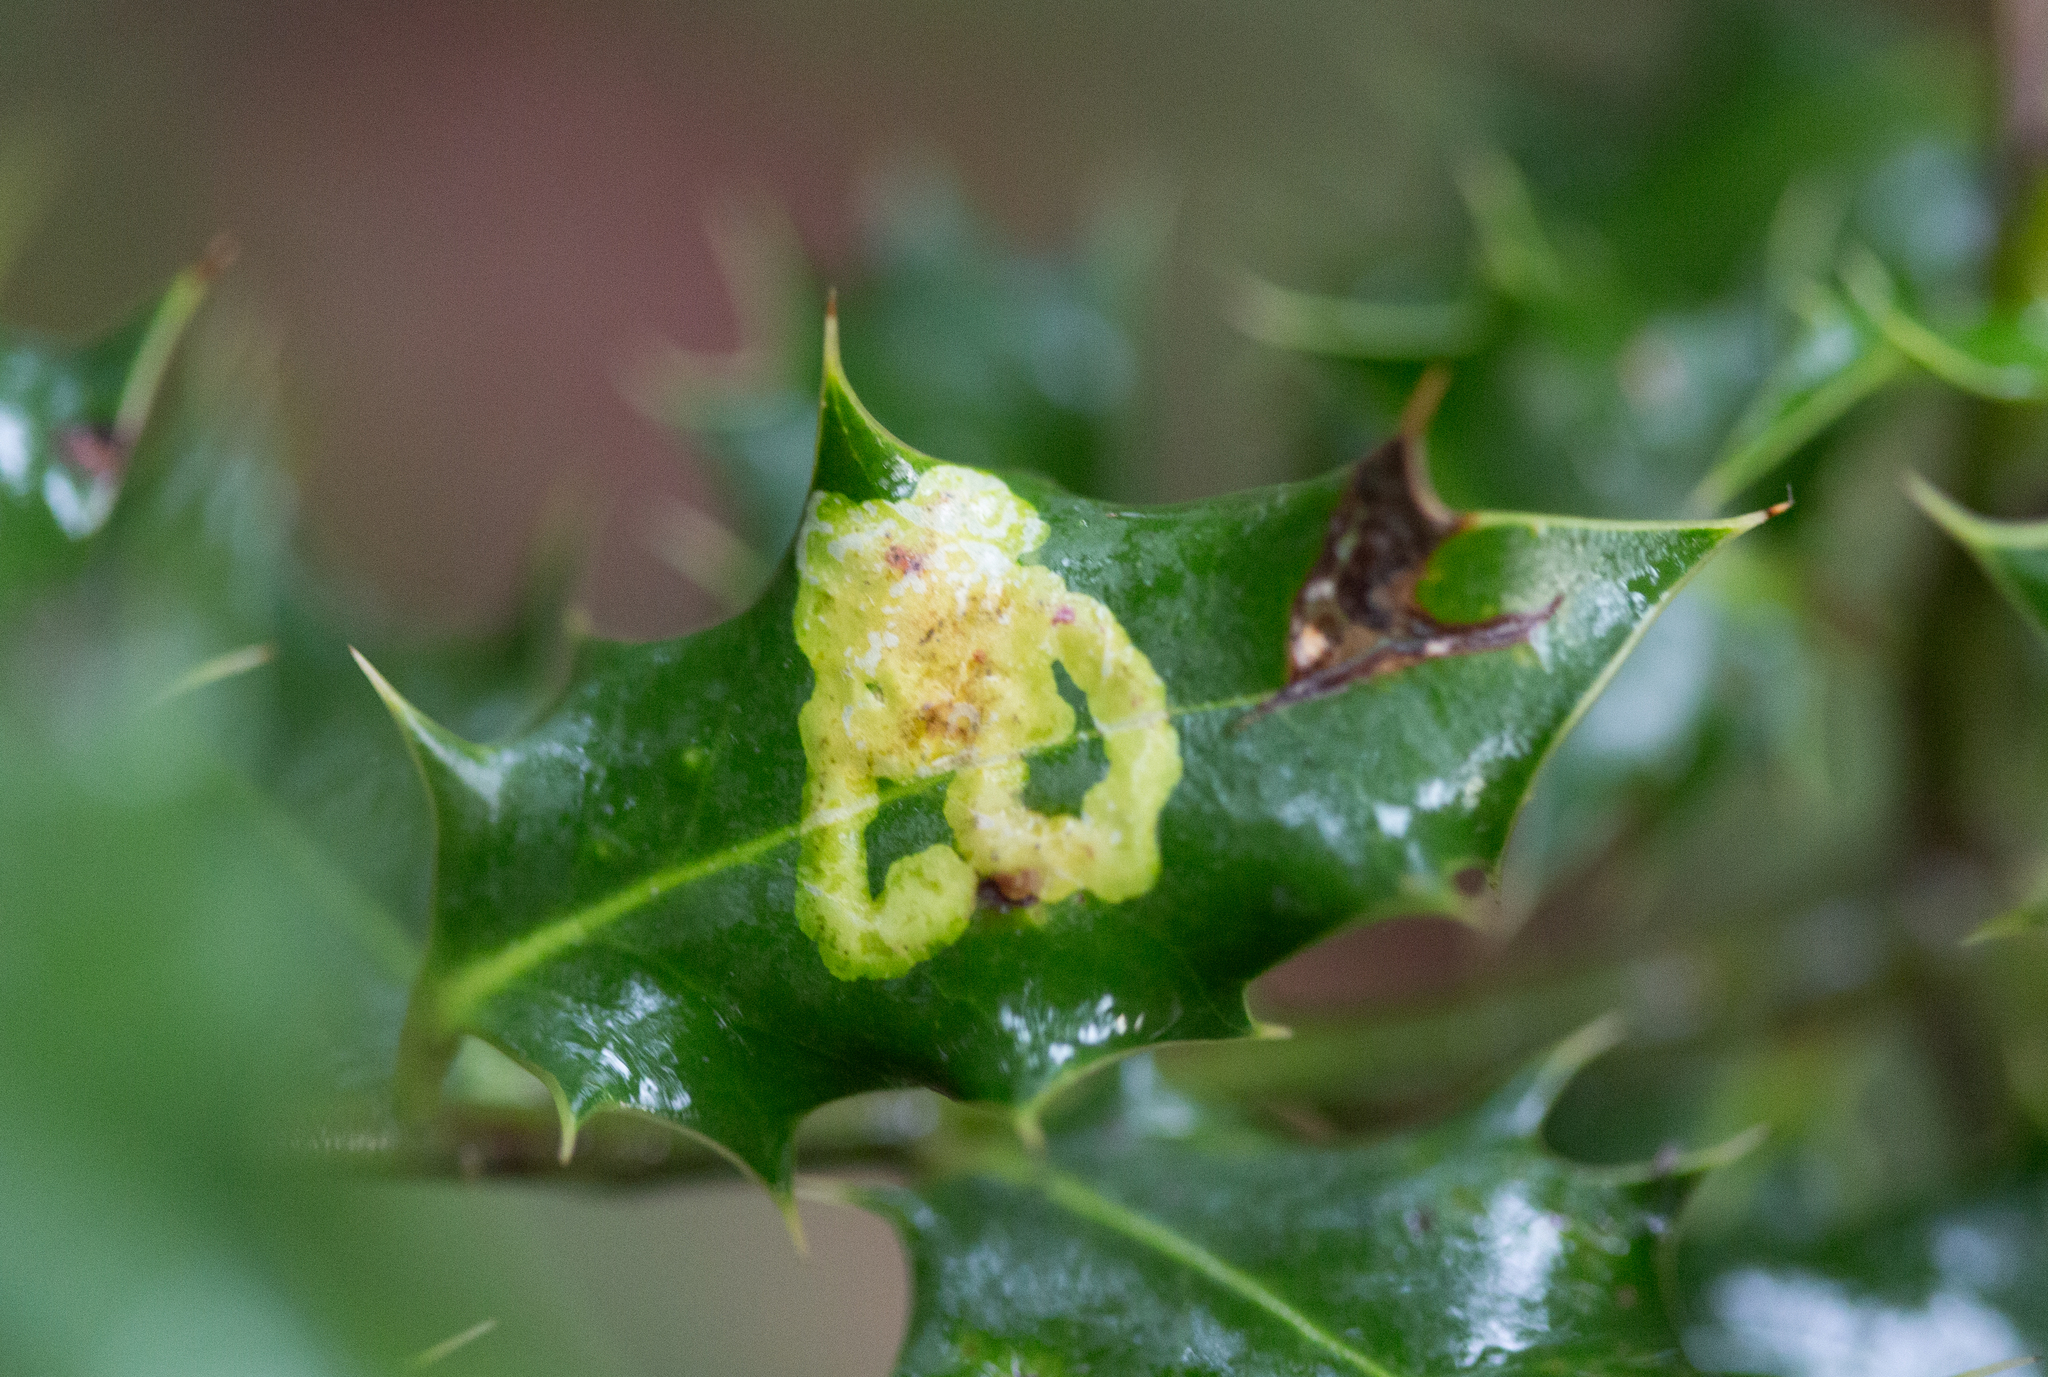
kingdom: Animalia
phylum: Arthropoda
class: Insecta
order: Diptera
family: Agromyzidae
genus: Phytomyza
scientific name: Phytomyza ilicis
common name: Holly leafminer
